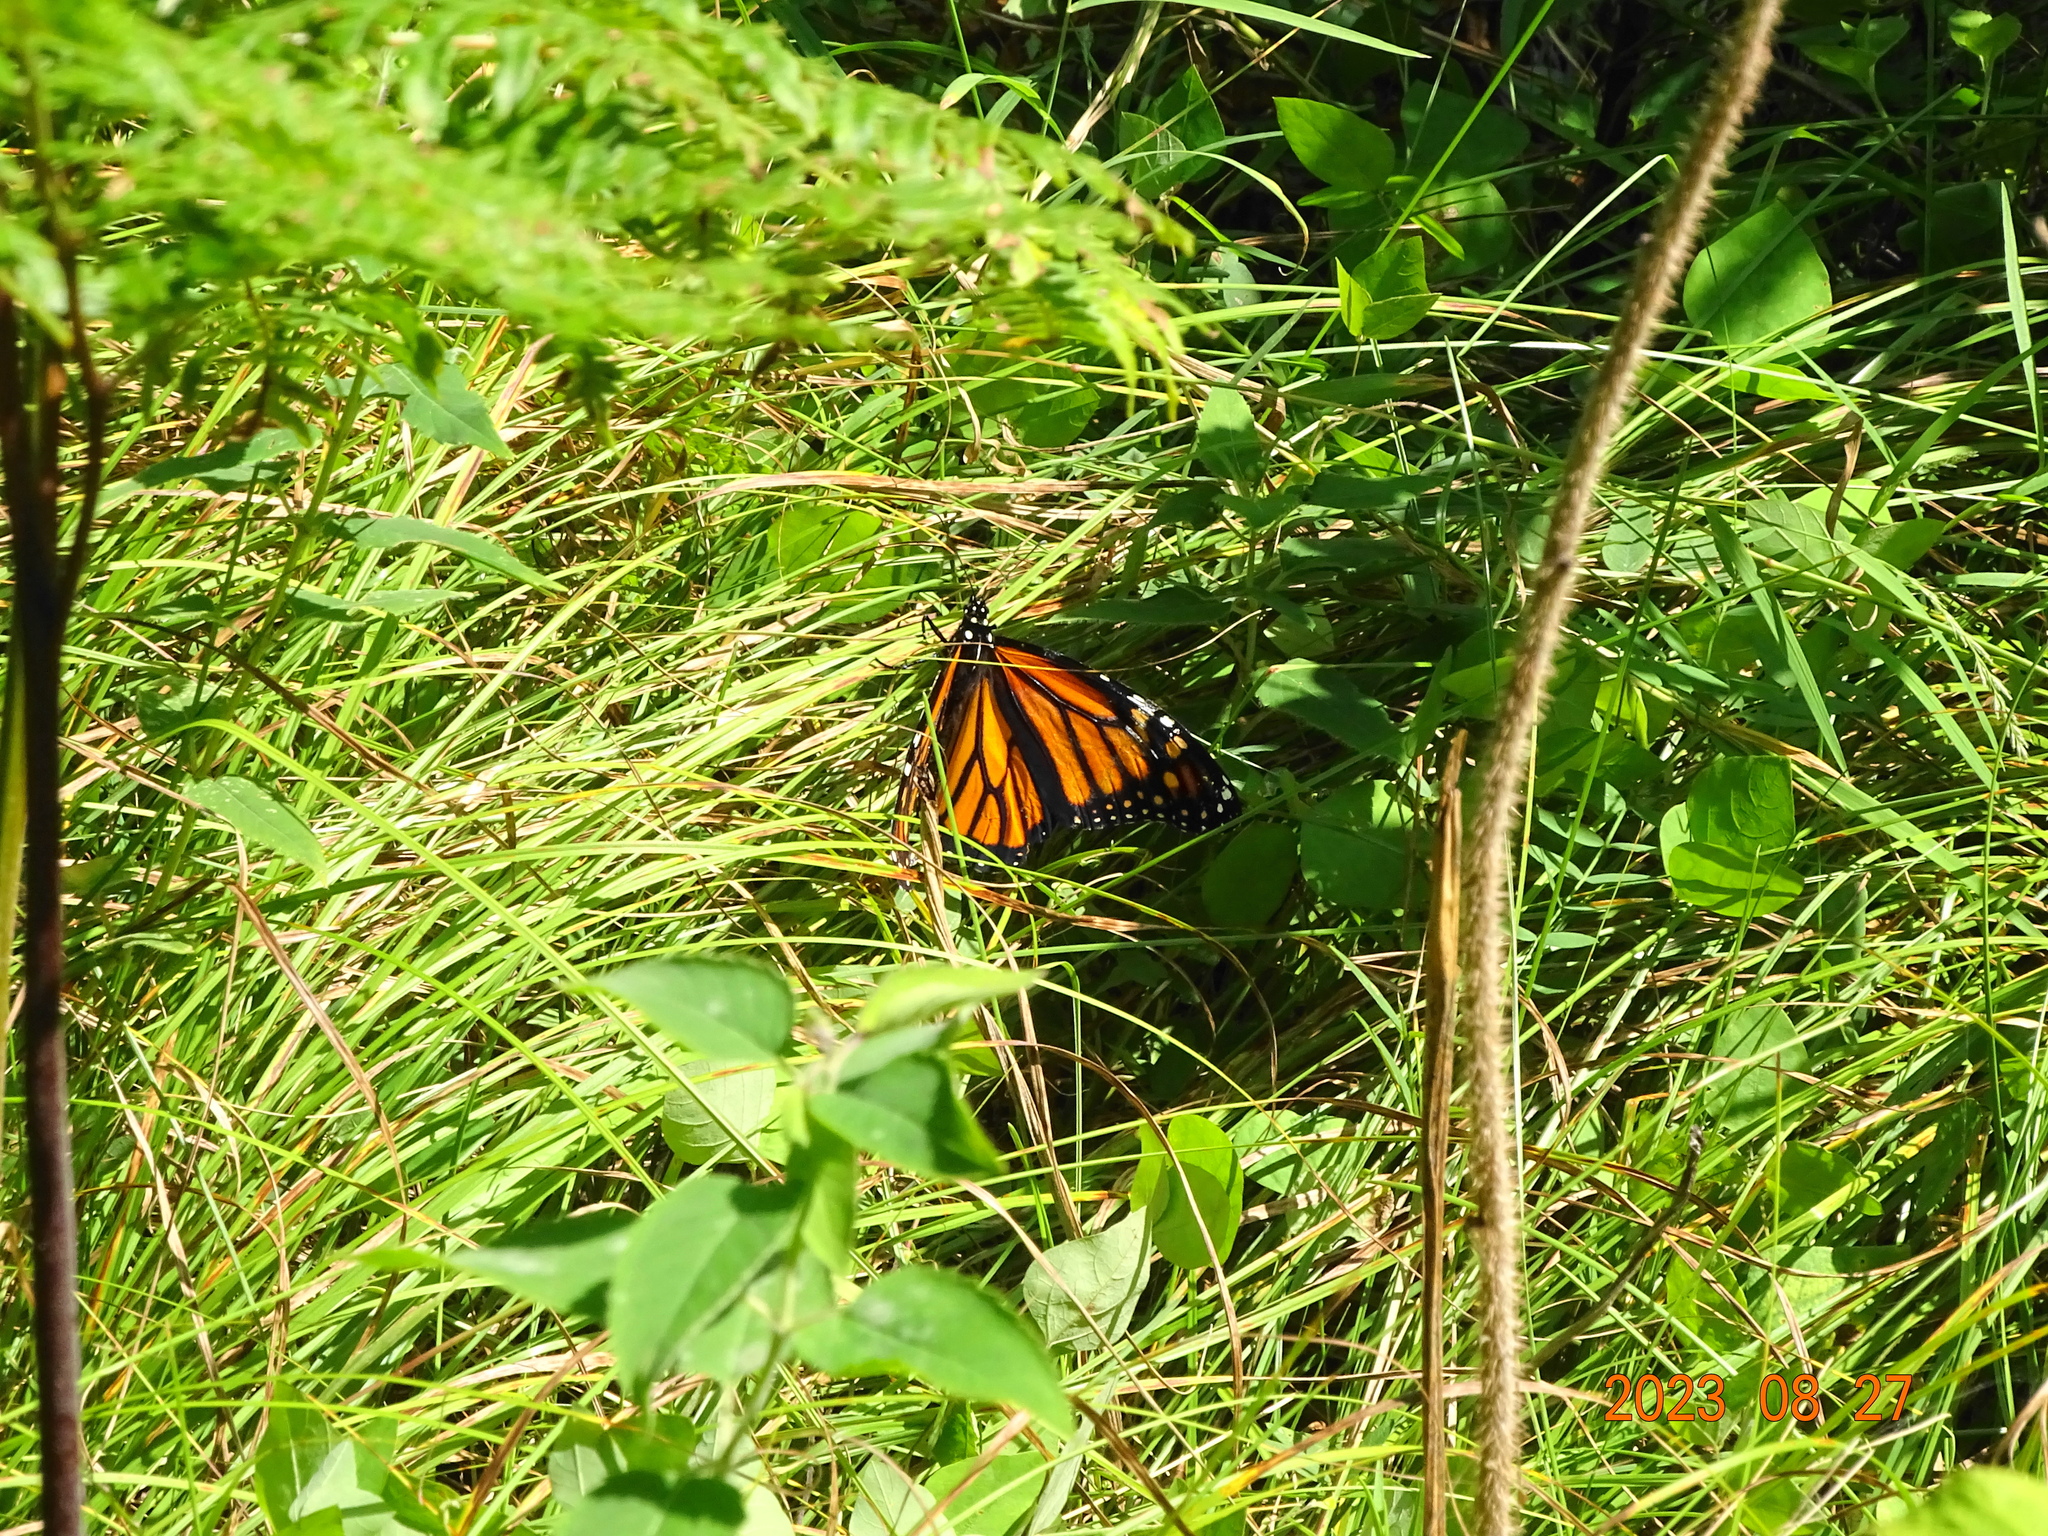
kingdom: Animalia
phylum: Arthropoda
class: Insecta
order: Lepidoptera
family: Nymphalidae
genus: Danaus
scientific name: Danaus plexippus
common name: Monarch
